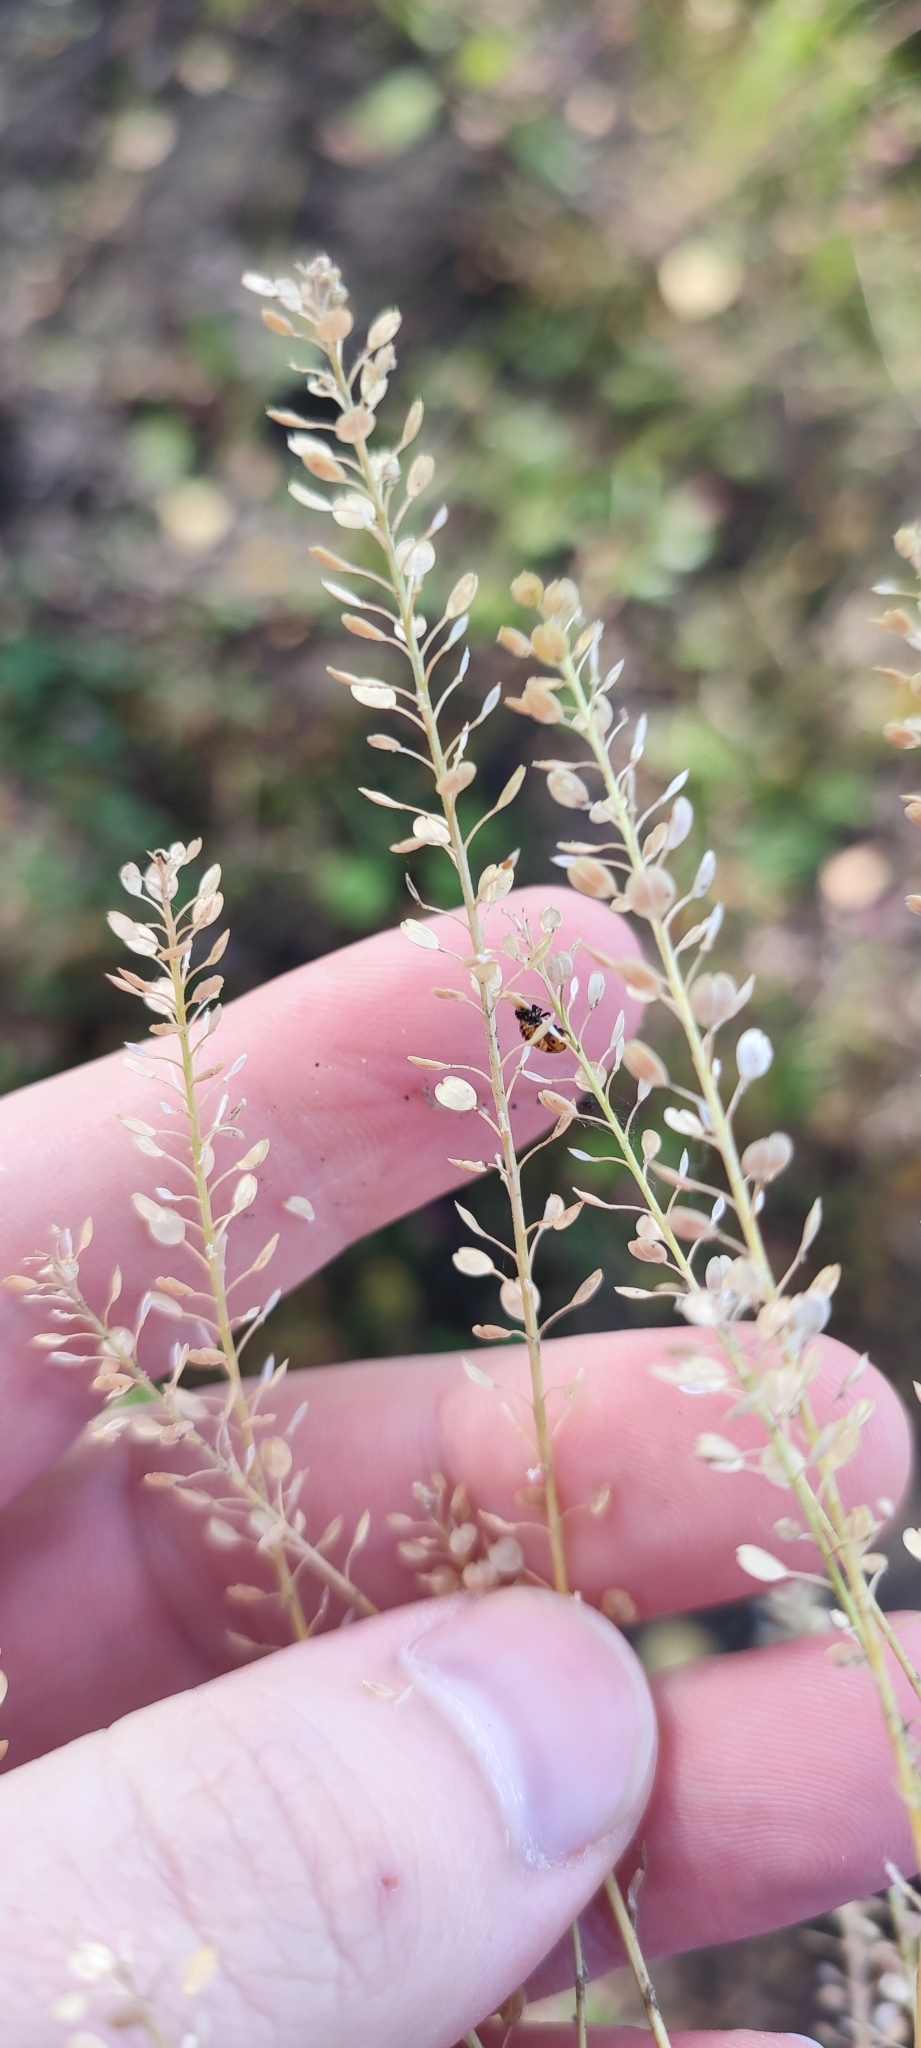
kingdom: Plantae
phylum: Tracheophyta
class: Magnoliopsida
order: Brassicales
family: Brassicaceae
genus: Lepidium
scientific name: Lepidium densiflorum
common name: Miner's pepperwort
